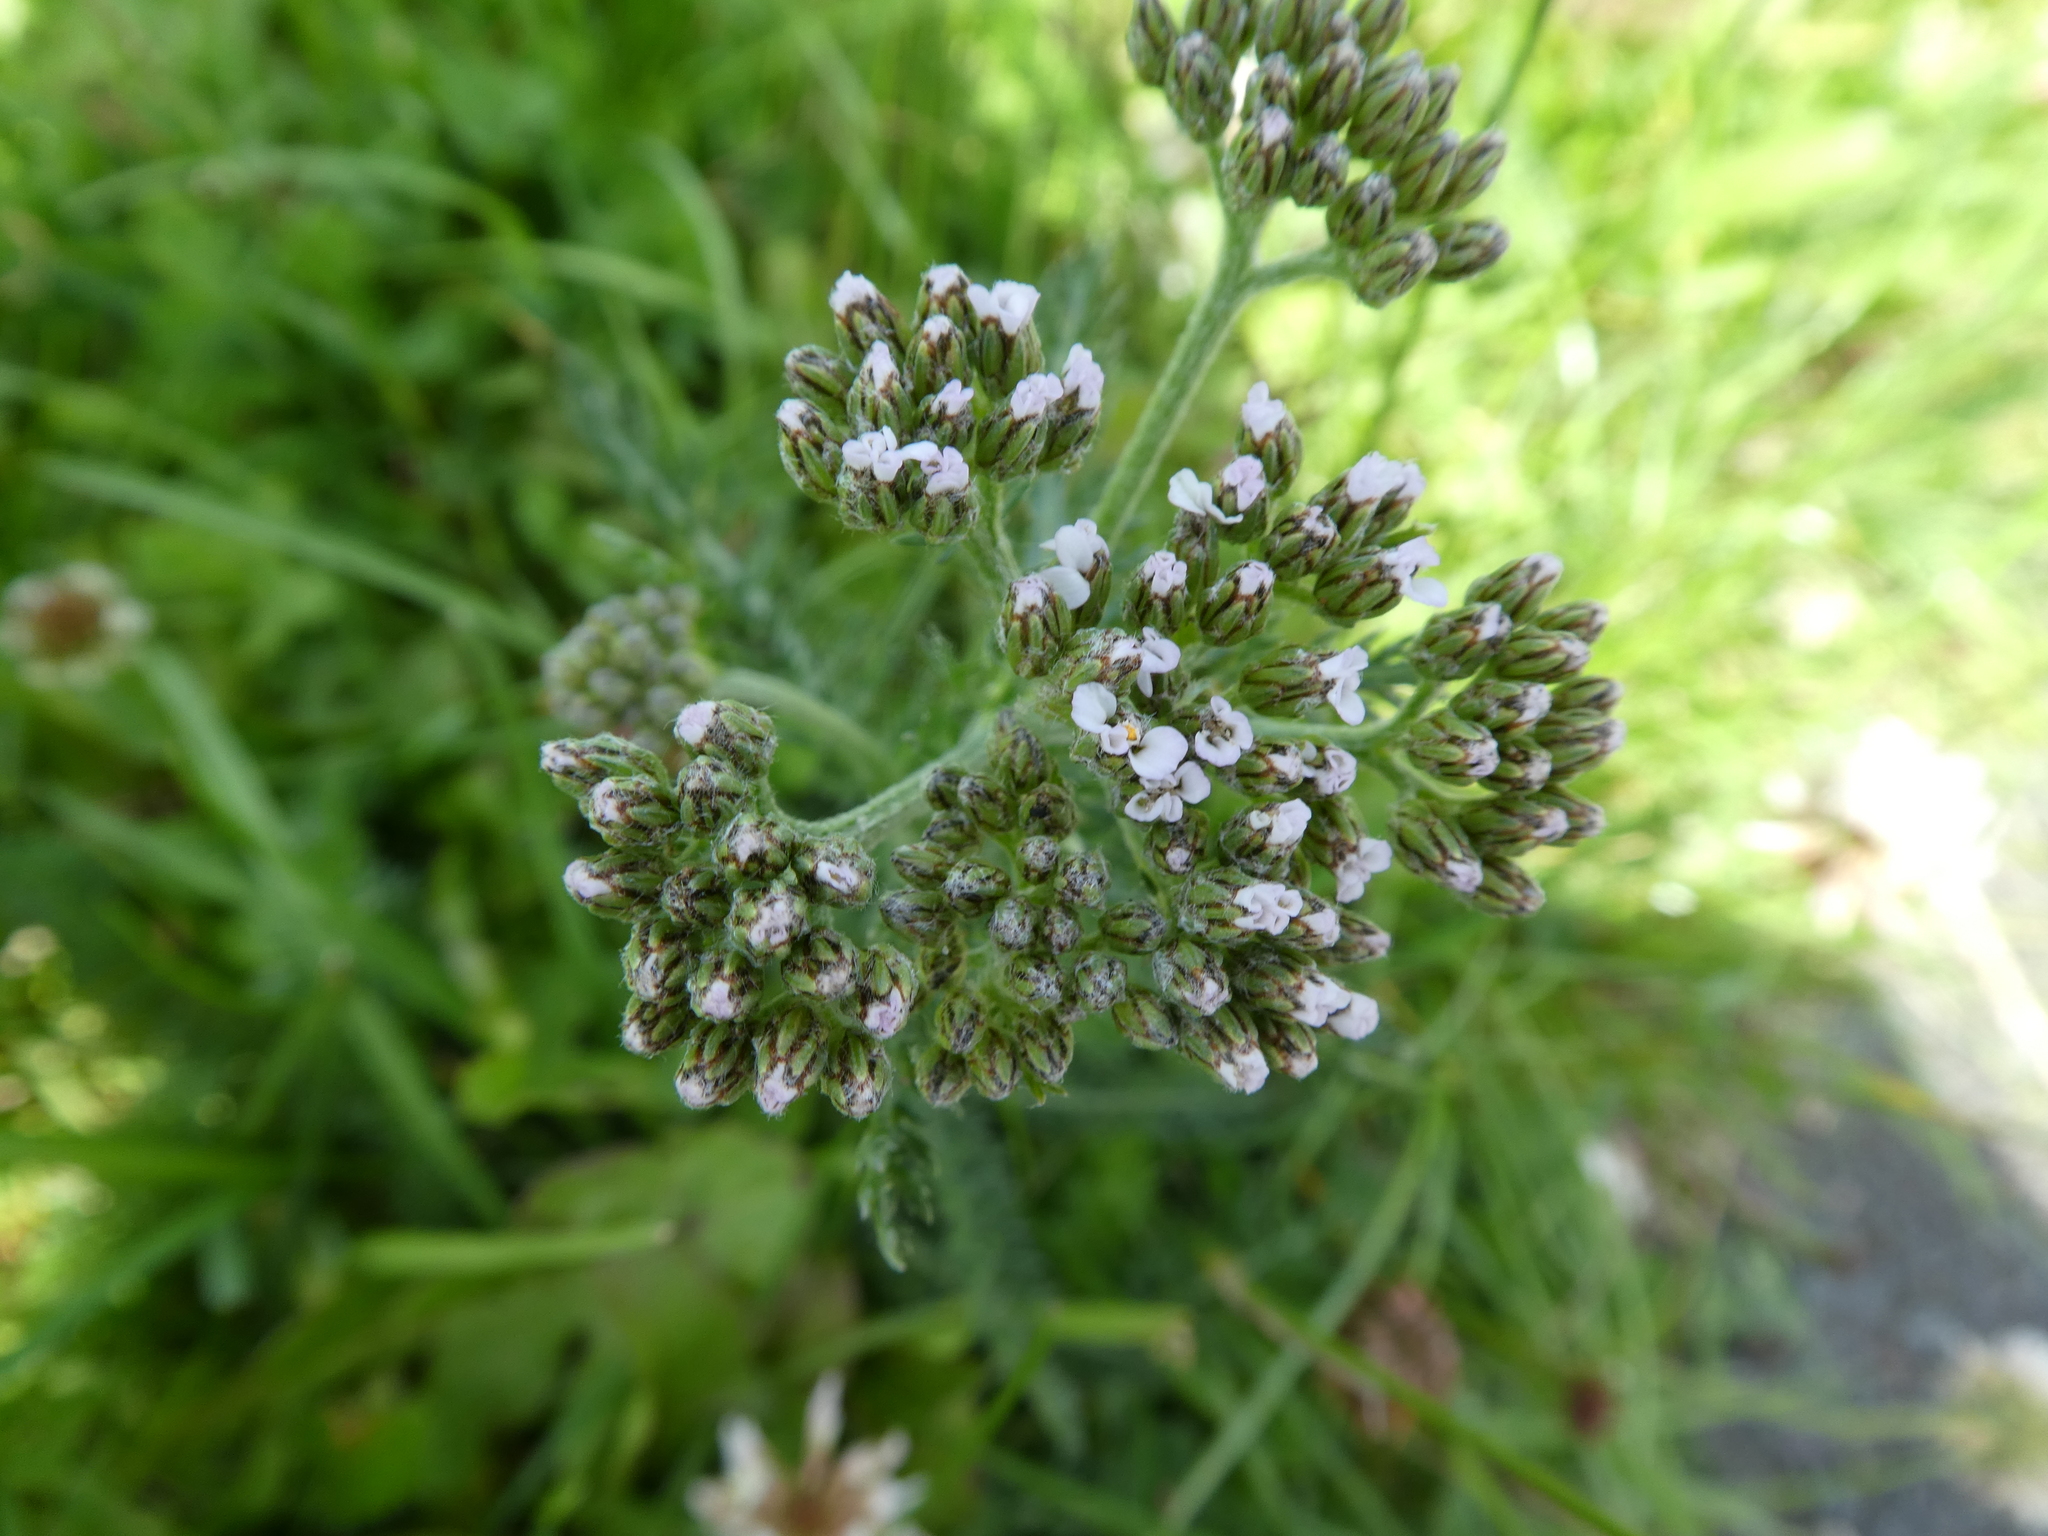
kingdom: Plantae
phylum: Tracheophyta
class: Magnoliopsida
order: Asterales
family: Asteraceae
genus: Achillea
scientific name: Achillea millefolium
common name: Yarrow
